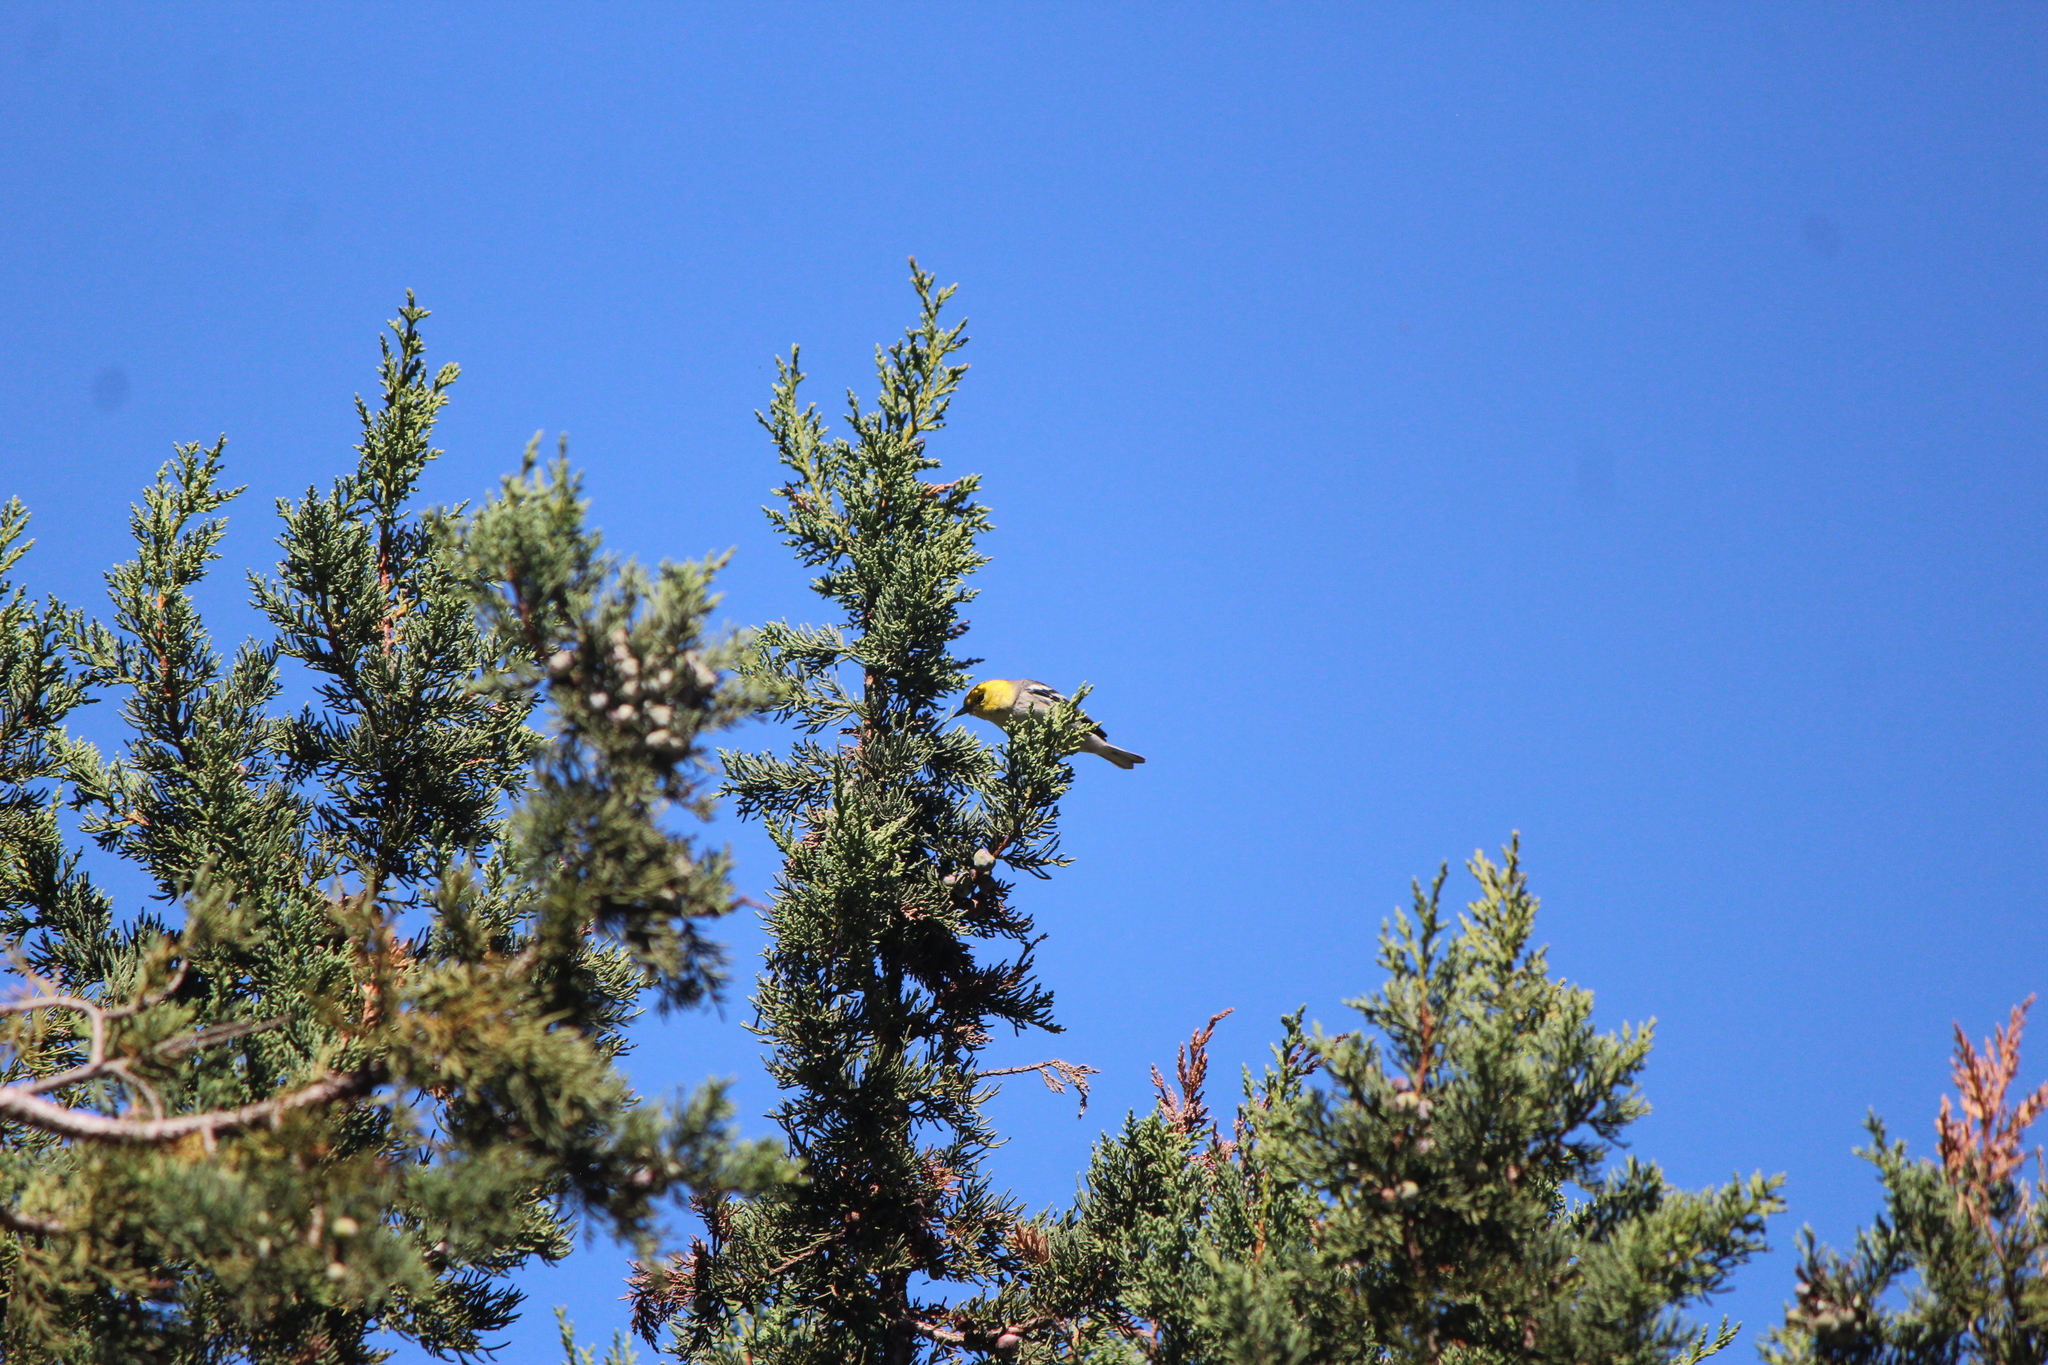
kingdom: Animalia
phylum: Chordata
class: Aves
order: Passeriformes
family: Parulidae
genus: Setophaga
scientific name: Setophaga occidentalis
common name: Hermit warbler
